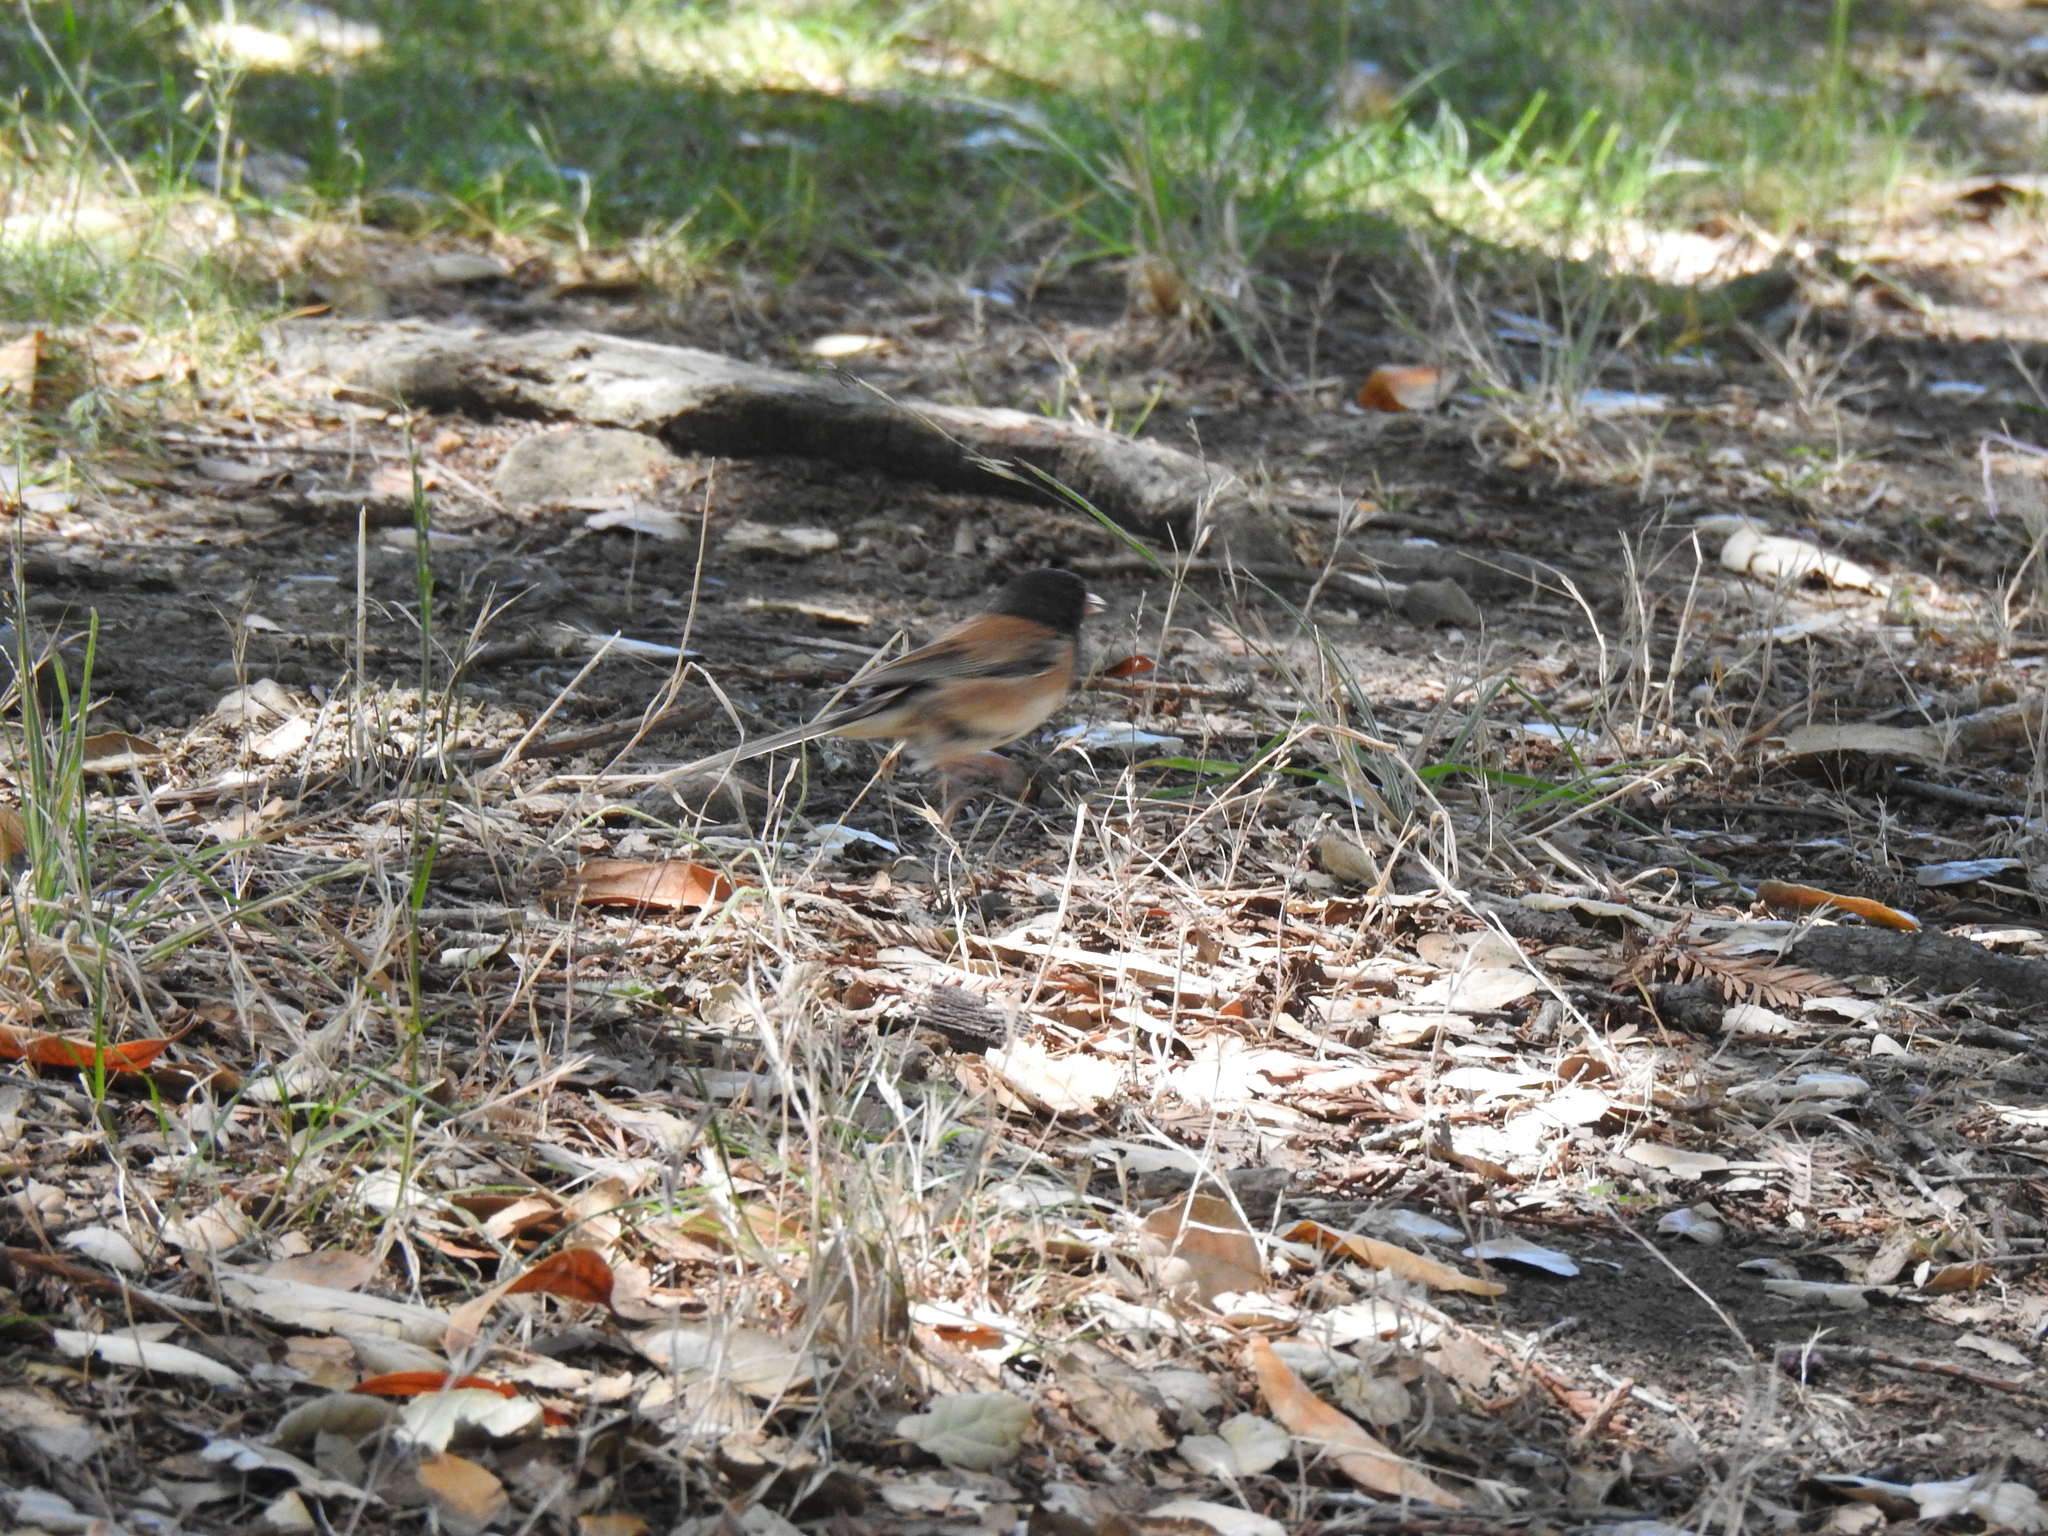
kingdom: Animalia
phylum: Chordata
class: Aves
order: Passeriformes
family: Passerellidae
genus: Junco
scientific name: Junco hyemalis
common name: Dark-eyed junco
